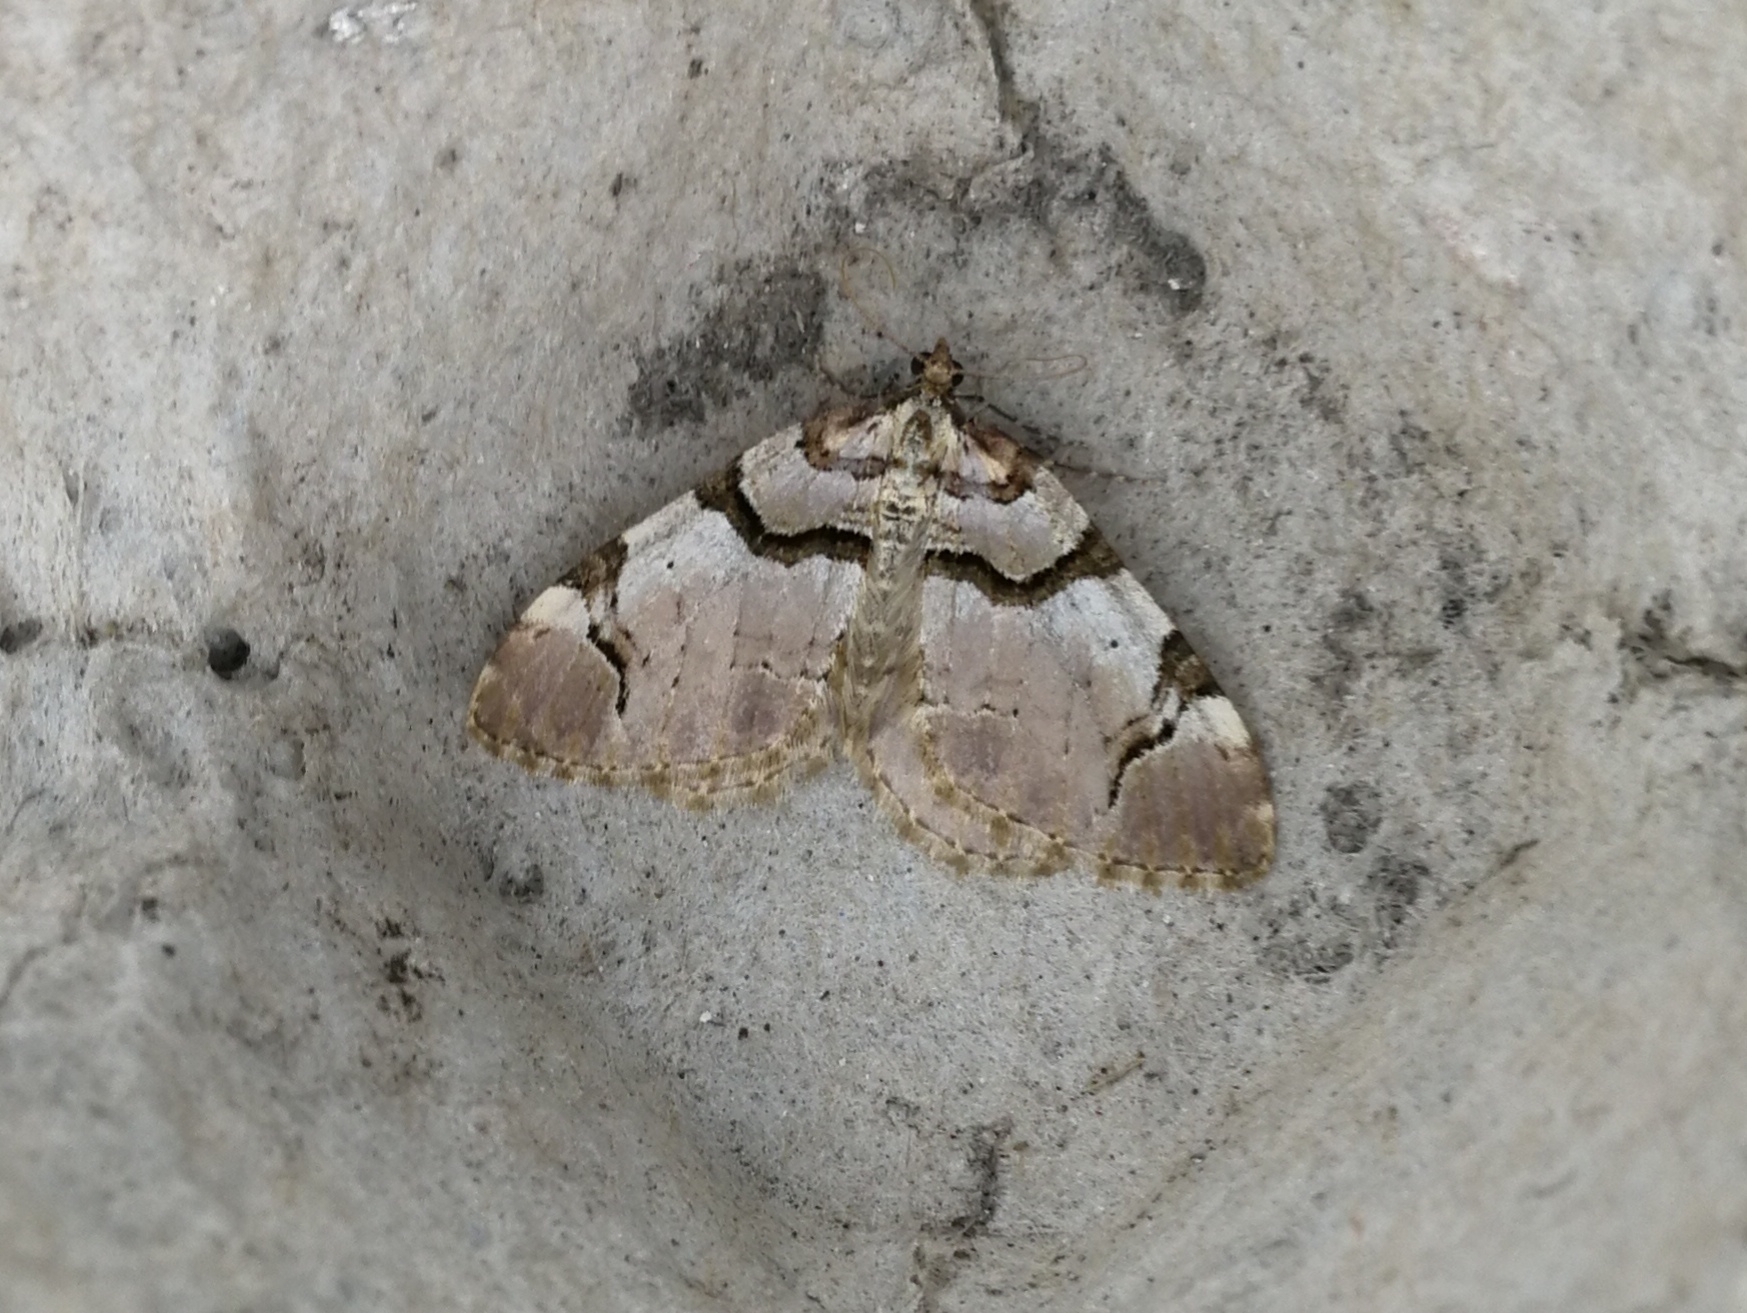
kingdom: Animalia
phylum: Arthropoda
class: Insecta
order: Lepidoptera
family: Geometridae
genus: Anticlea
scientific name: Anticlea derivata
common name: Streamer
